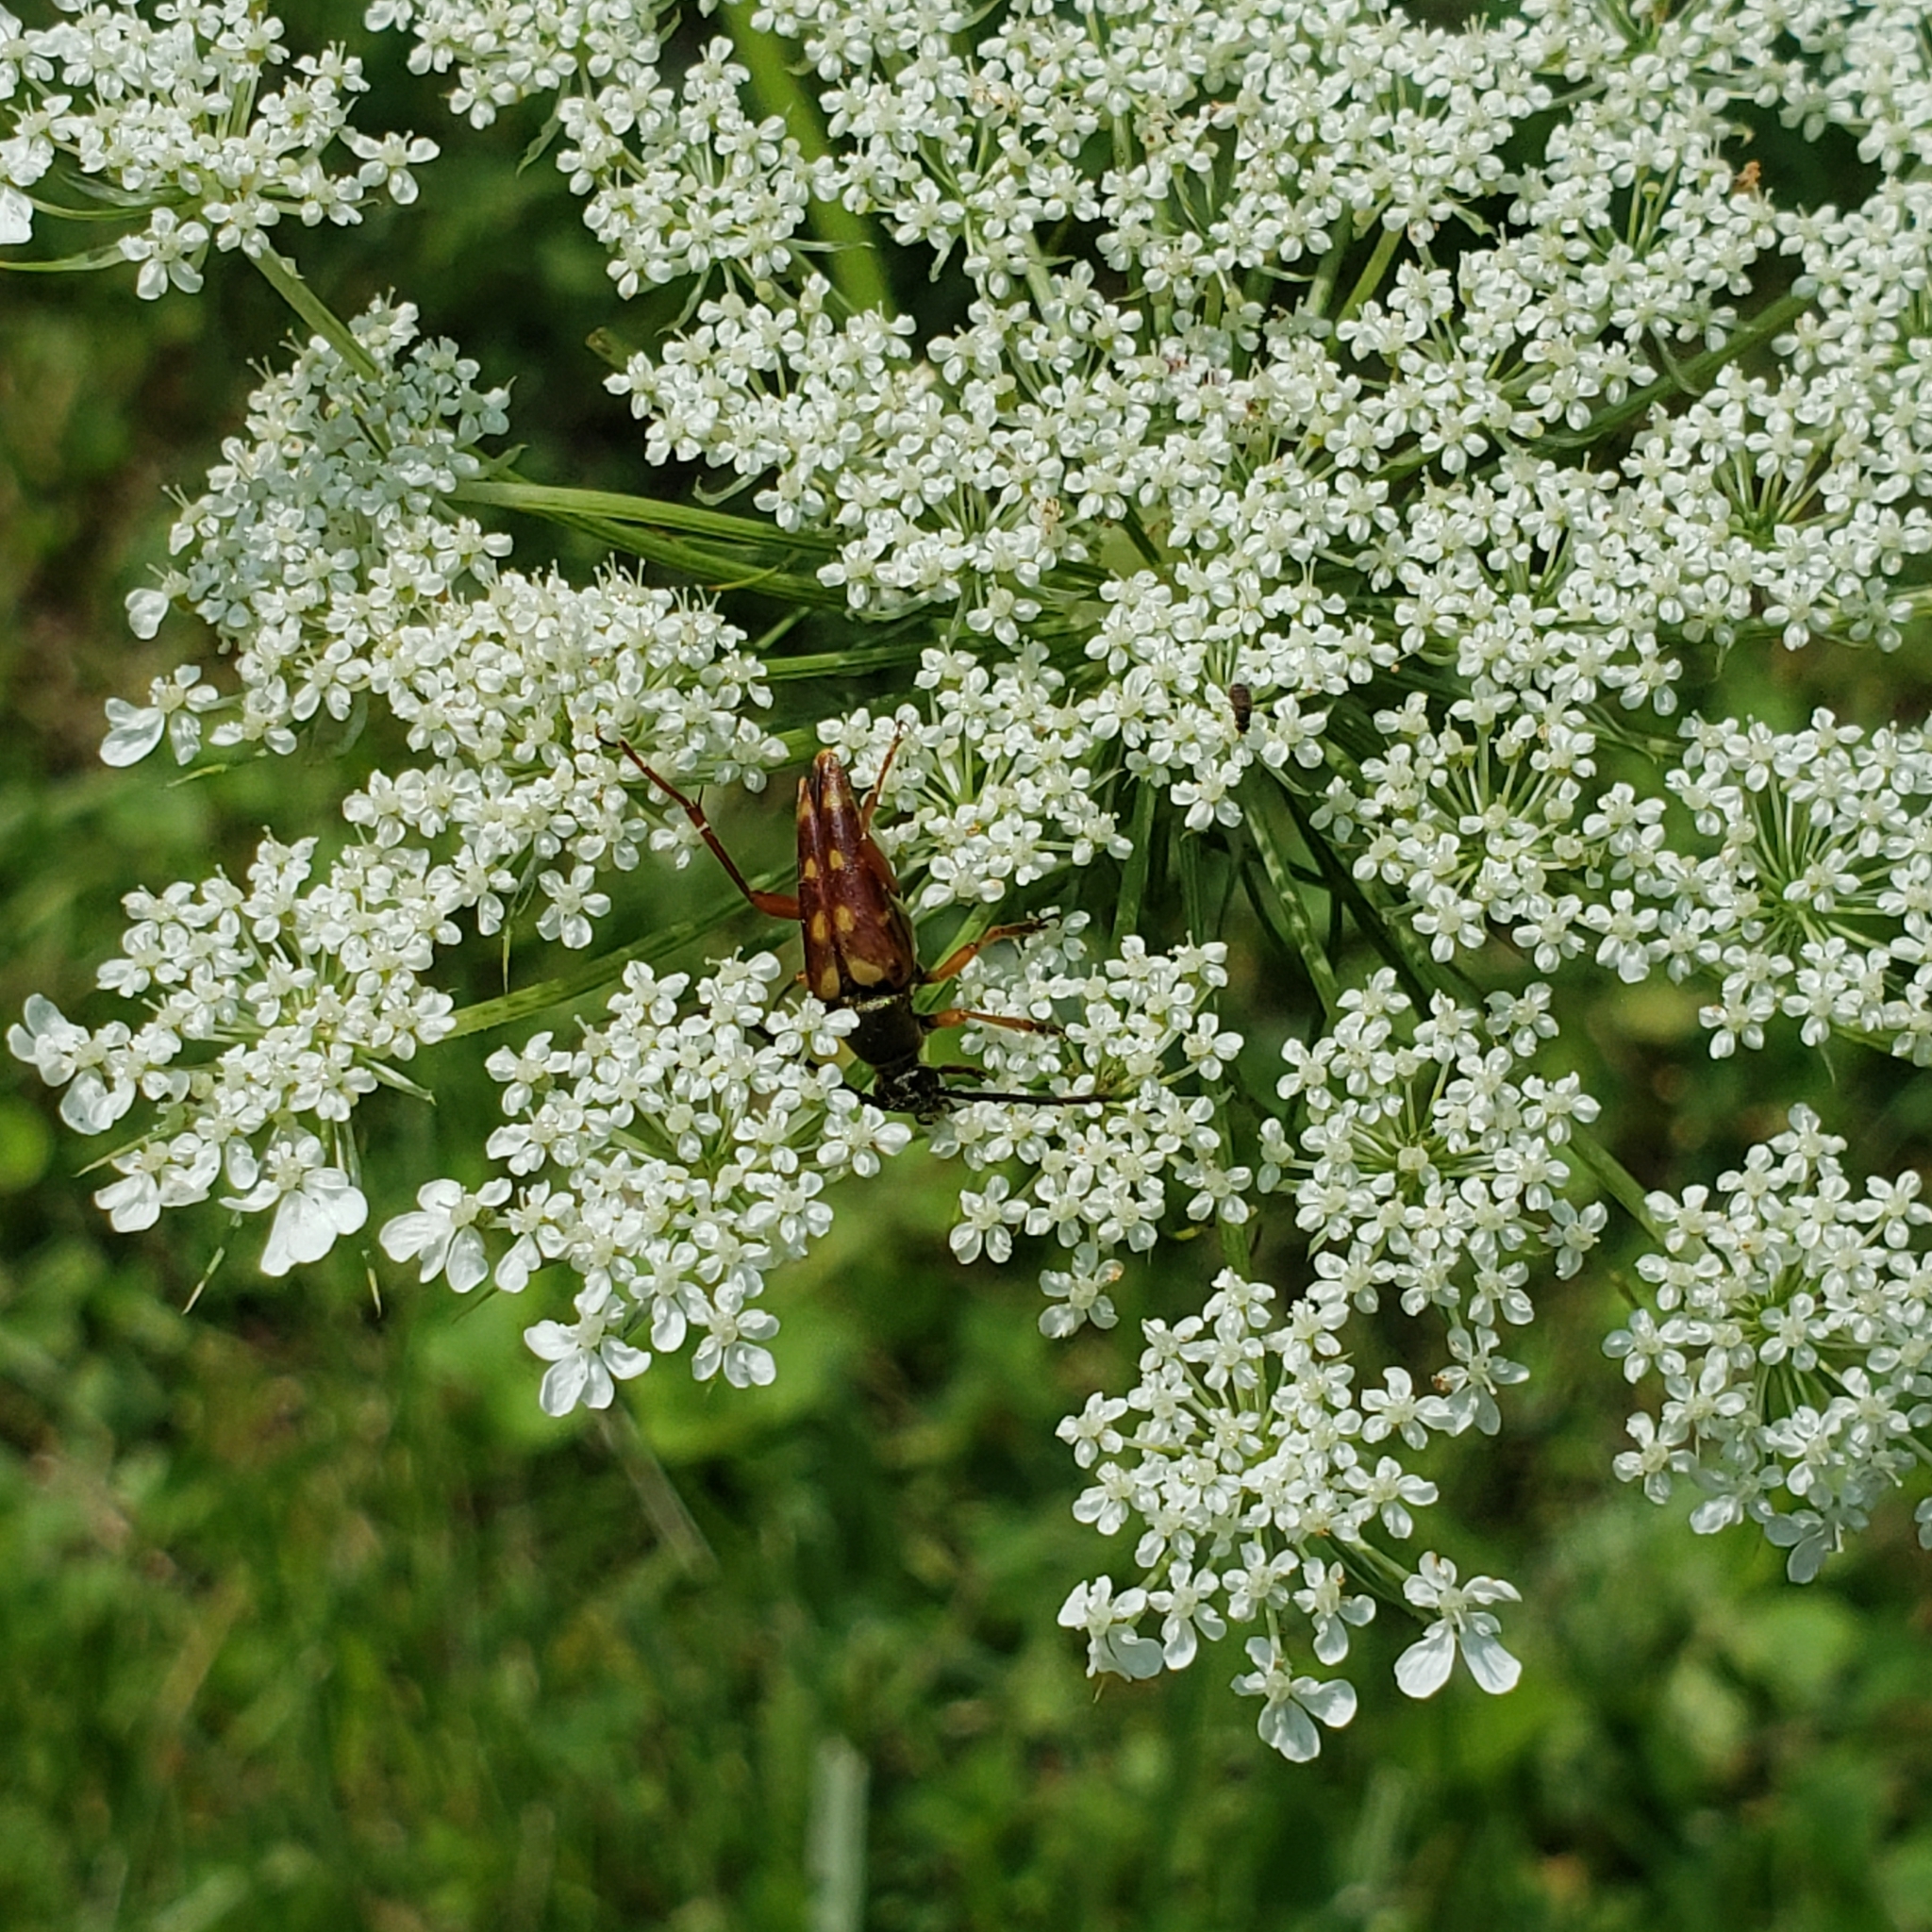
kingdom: Animalia
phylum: Arthropoda
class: Insecta
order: Coleoptera
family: Cerambycidae
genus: Typocerus
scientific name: Typocerus velutinus
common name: Banded longhorn beetle
